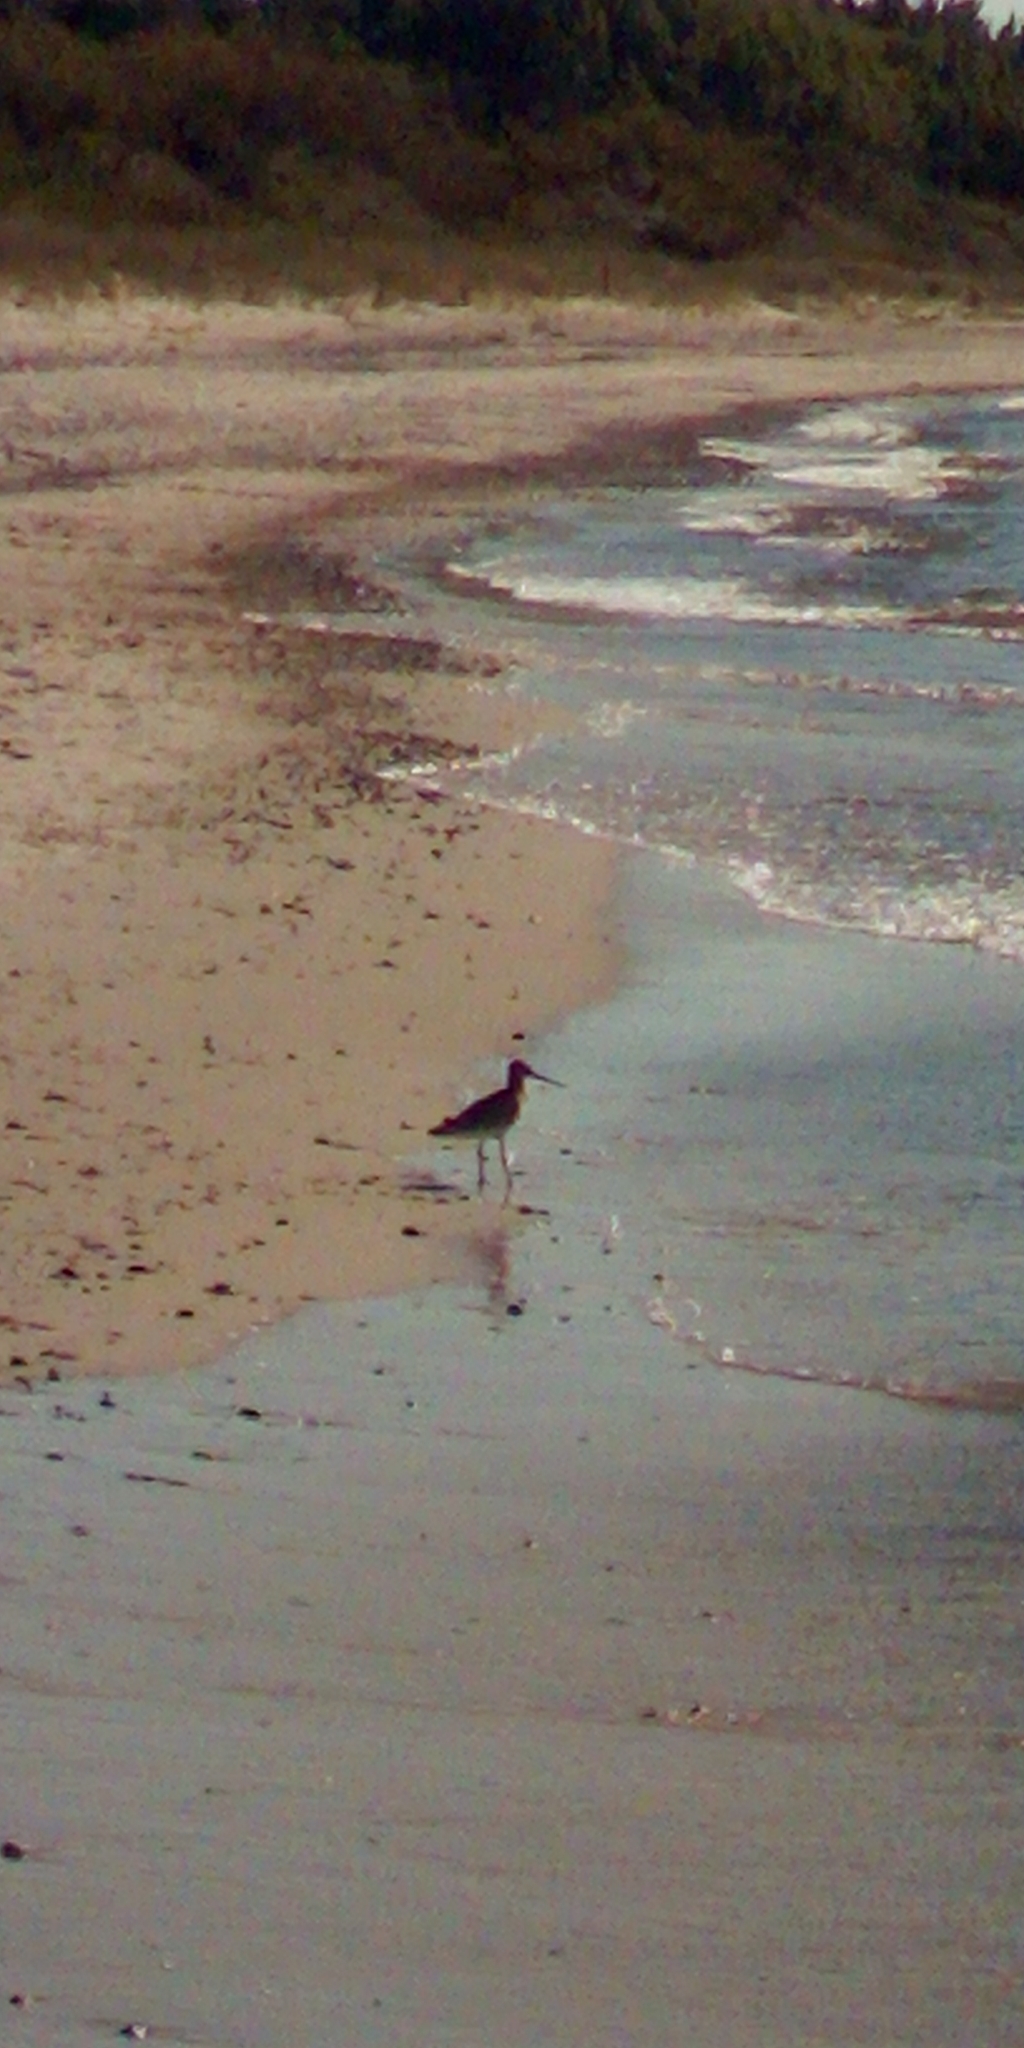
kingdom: Animalia
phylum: Chordata
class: Aves
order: Charadriiformes
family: Scolopacidae
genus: Limosa
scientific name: Limosa limosa
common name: Black-tailed godwit
